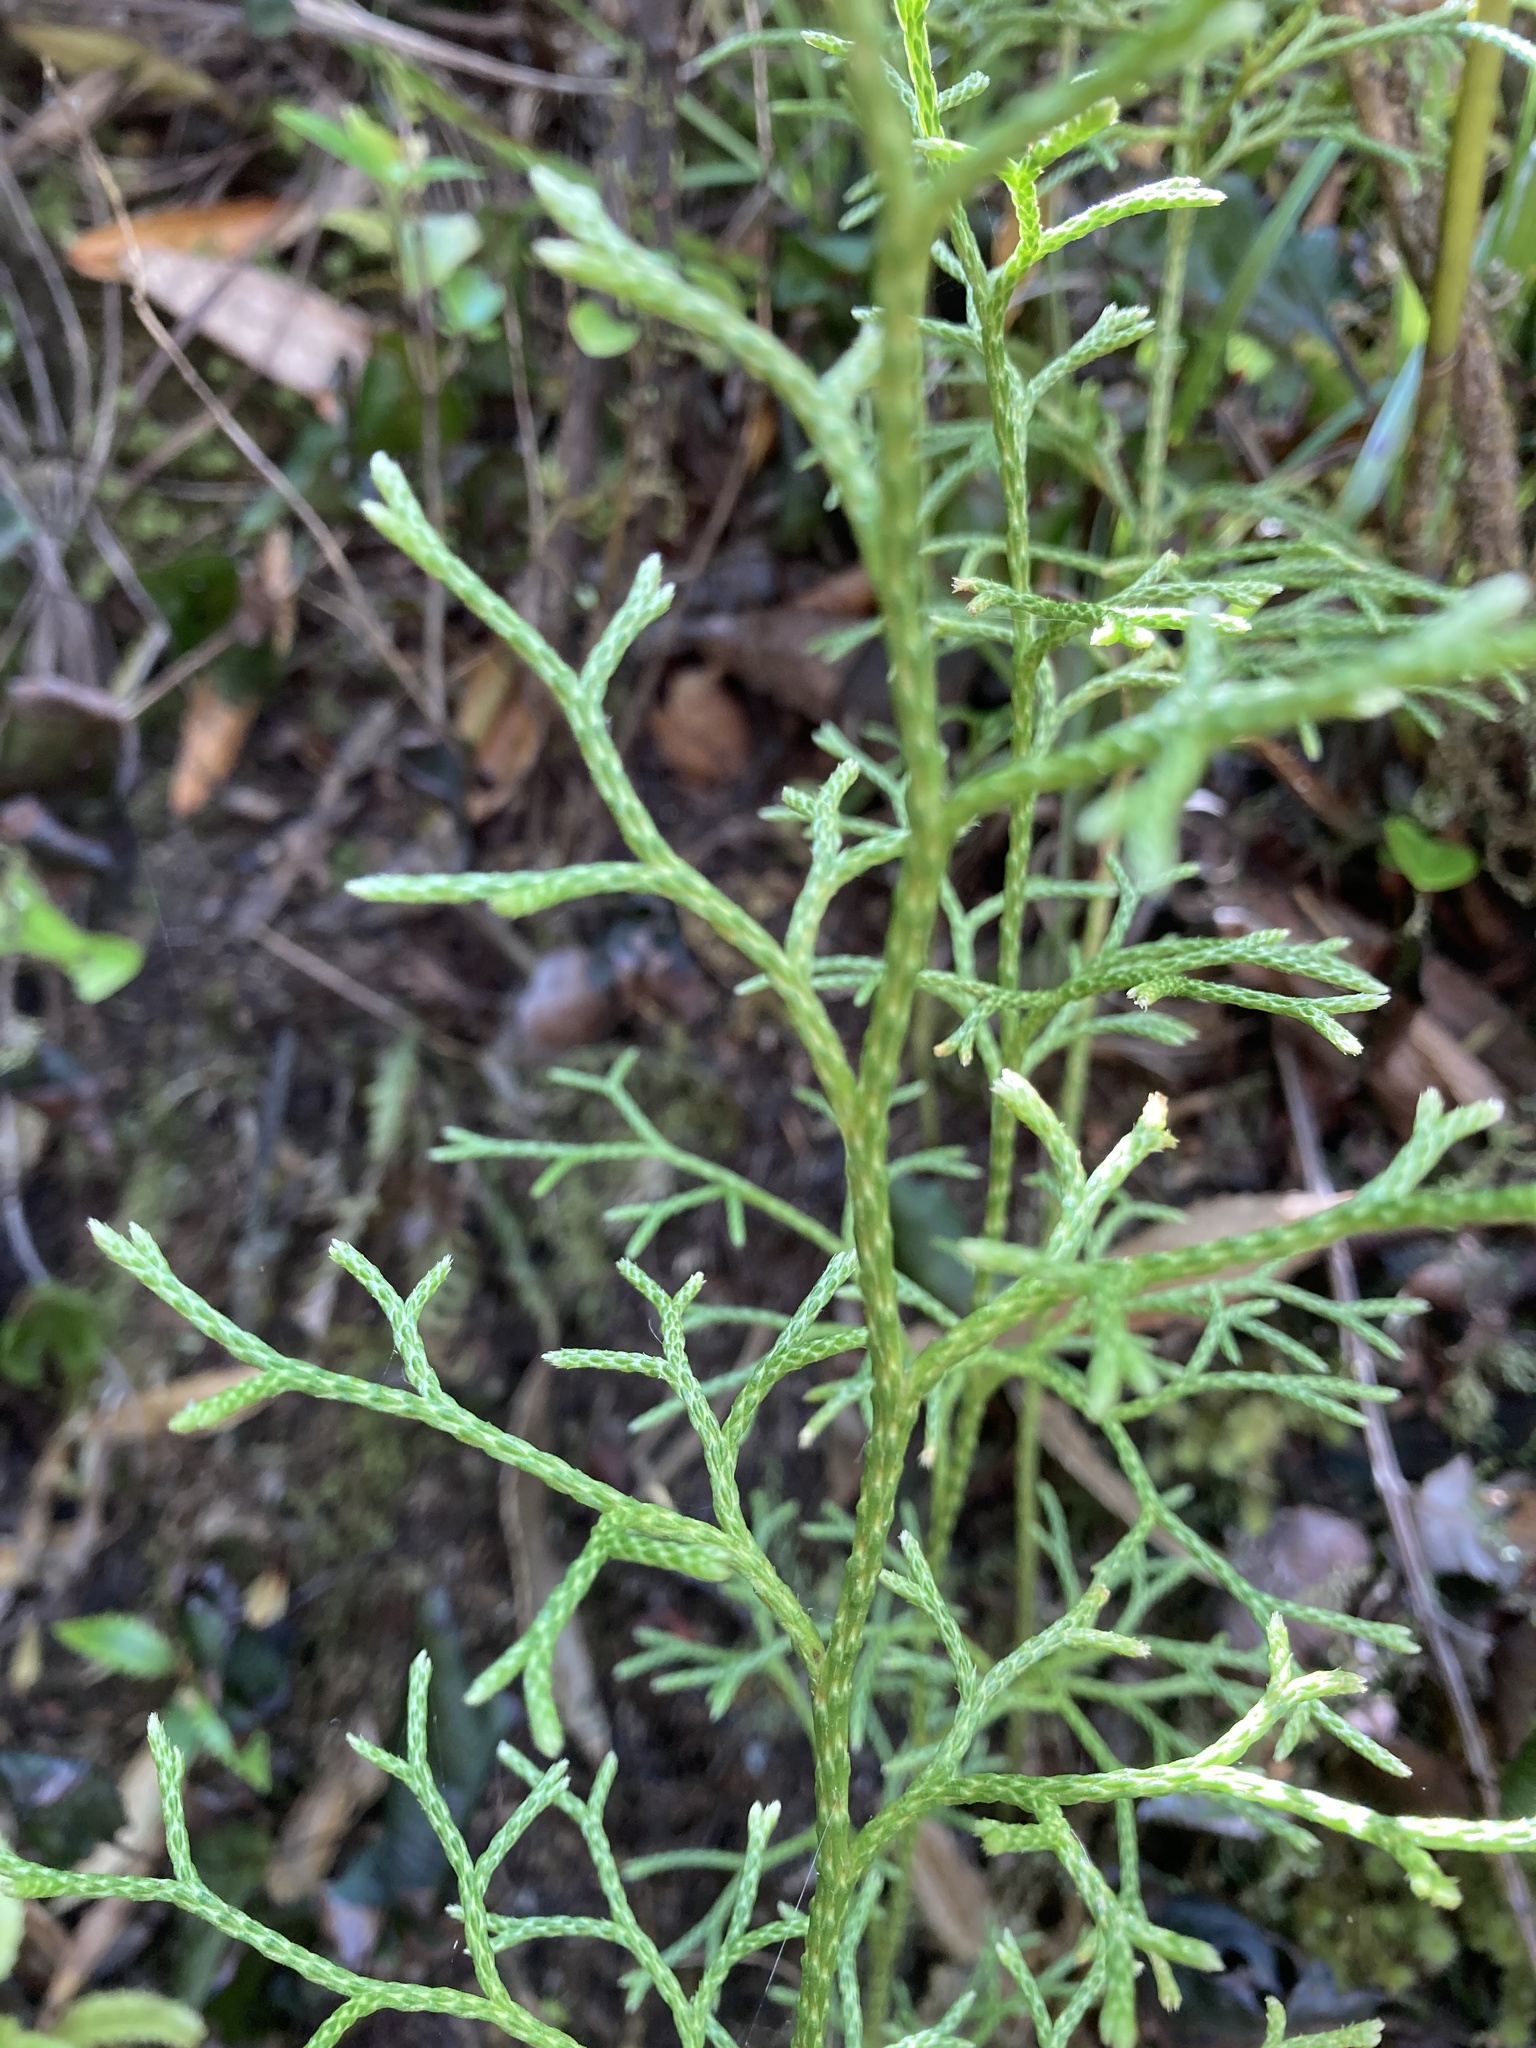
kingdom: Plantae
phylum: Tracheophyta
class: Lycopodiopsida
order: Lycopodiales
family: Lycopodiaceae
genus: Pseudolycopodium
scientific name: Pseudolycopodium densum
